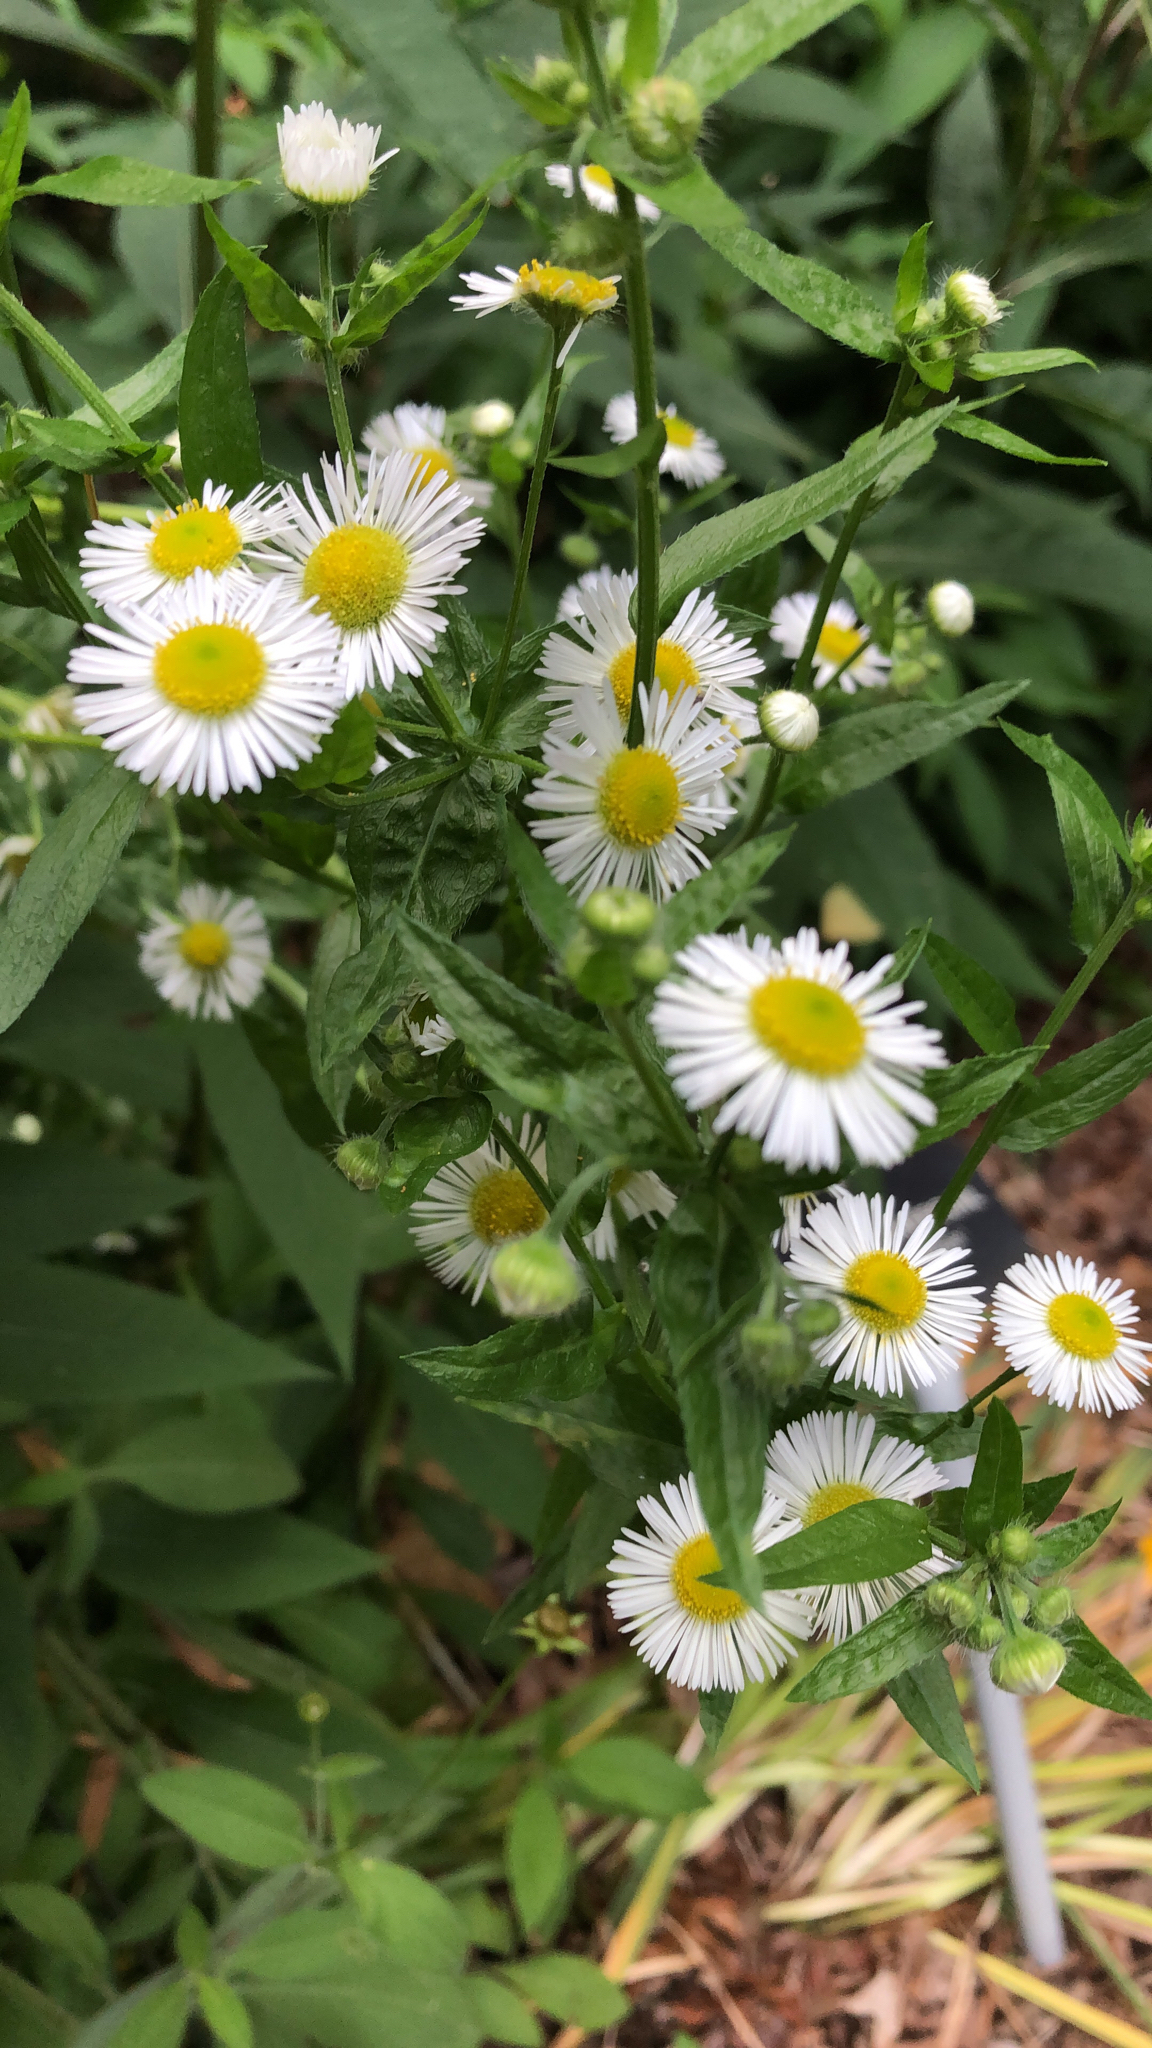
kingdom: Plantae
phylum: Tracheophyta
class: Magnoliopsida
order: Asterales
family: Asteraceae
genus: Erigeron
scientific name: Erigeron annuus
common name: Tall fleabane
